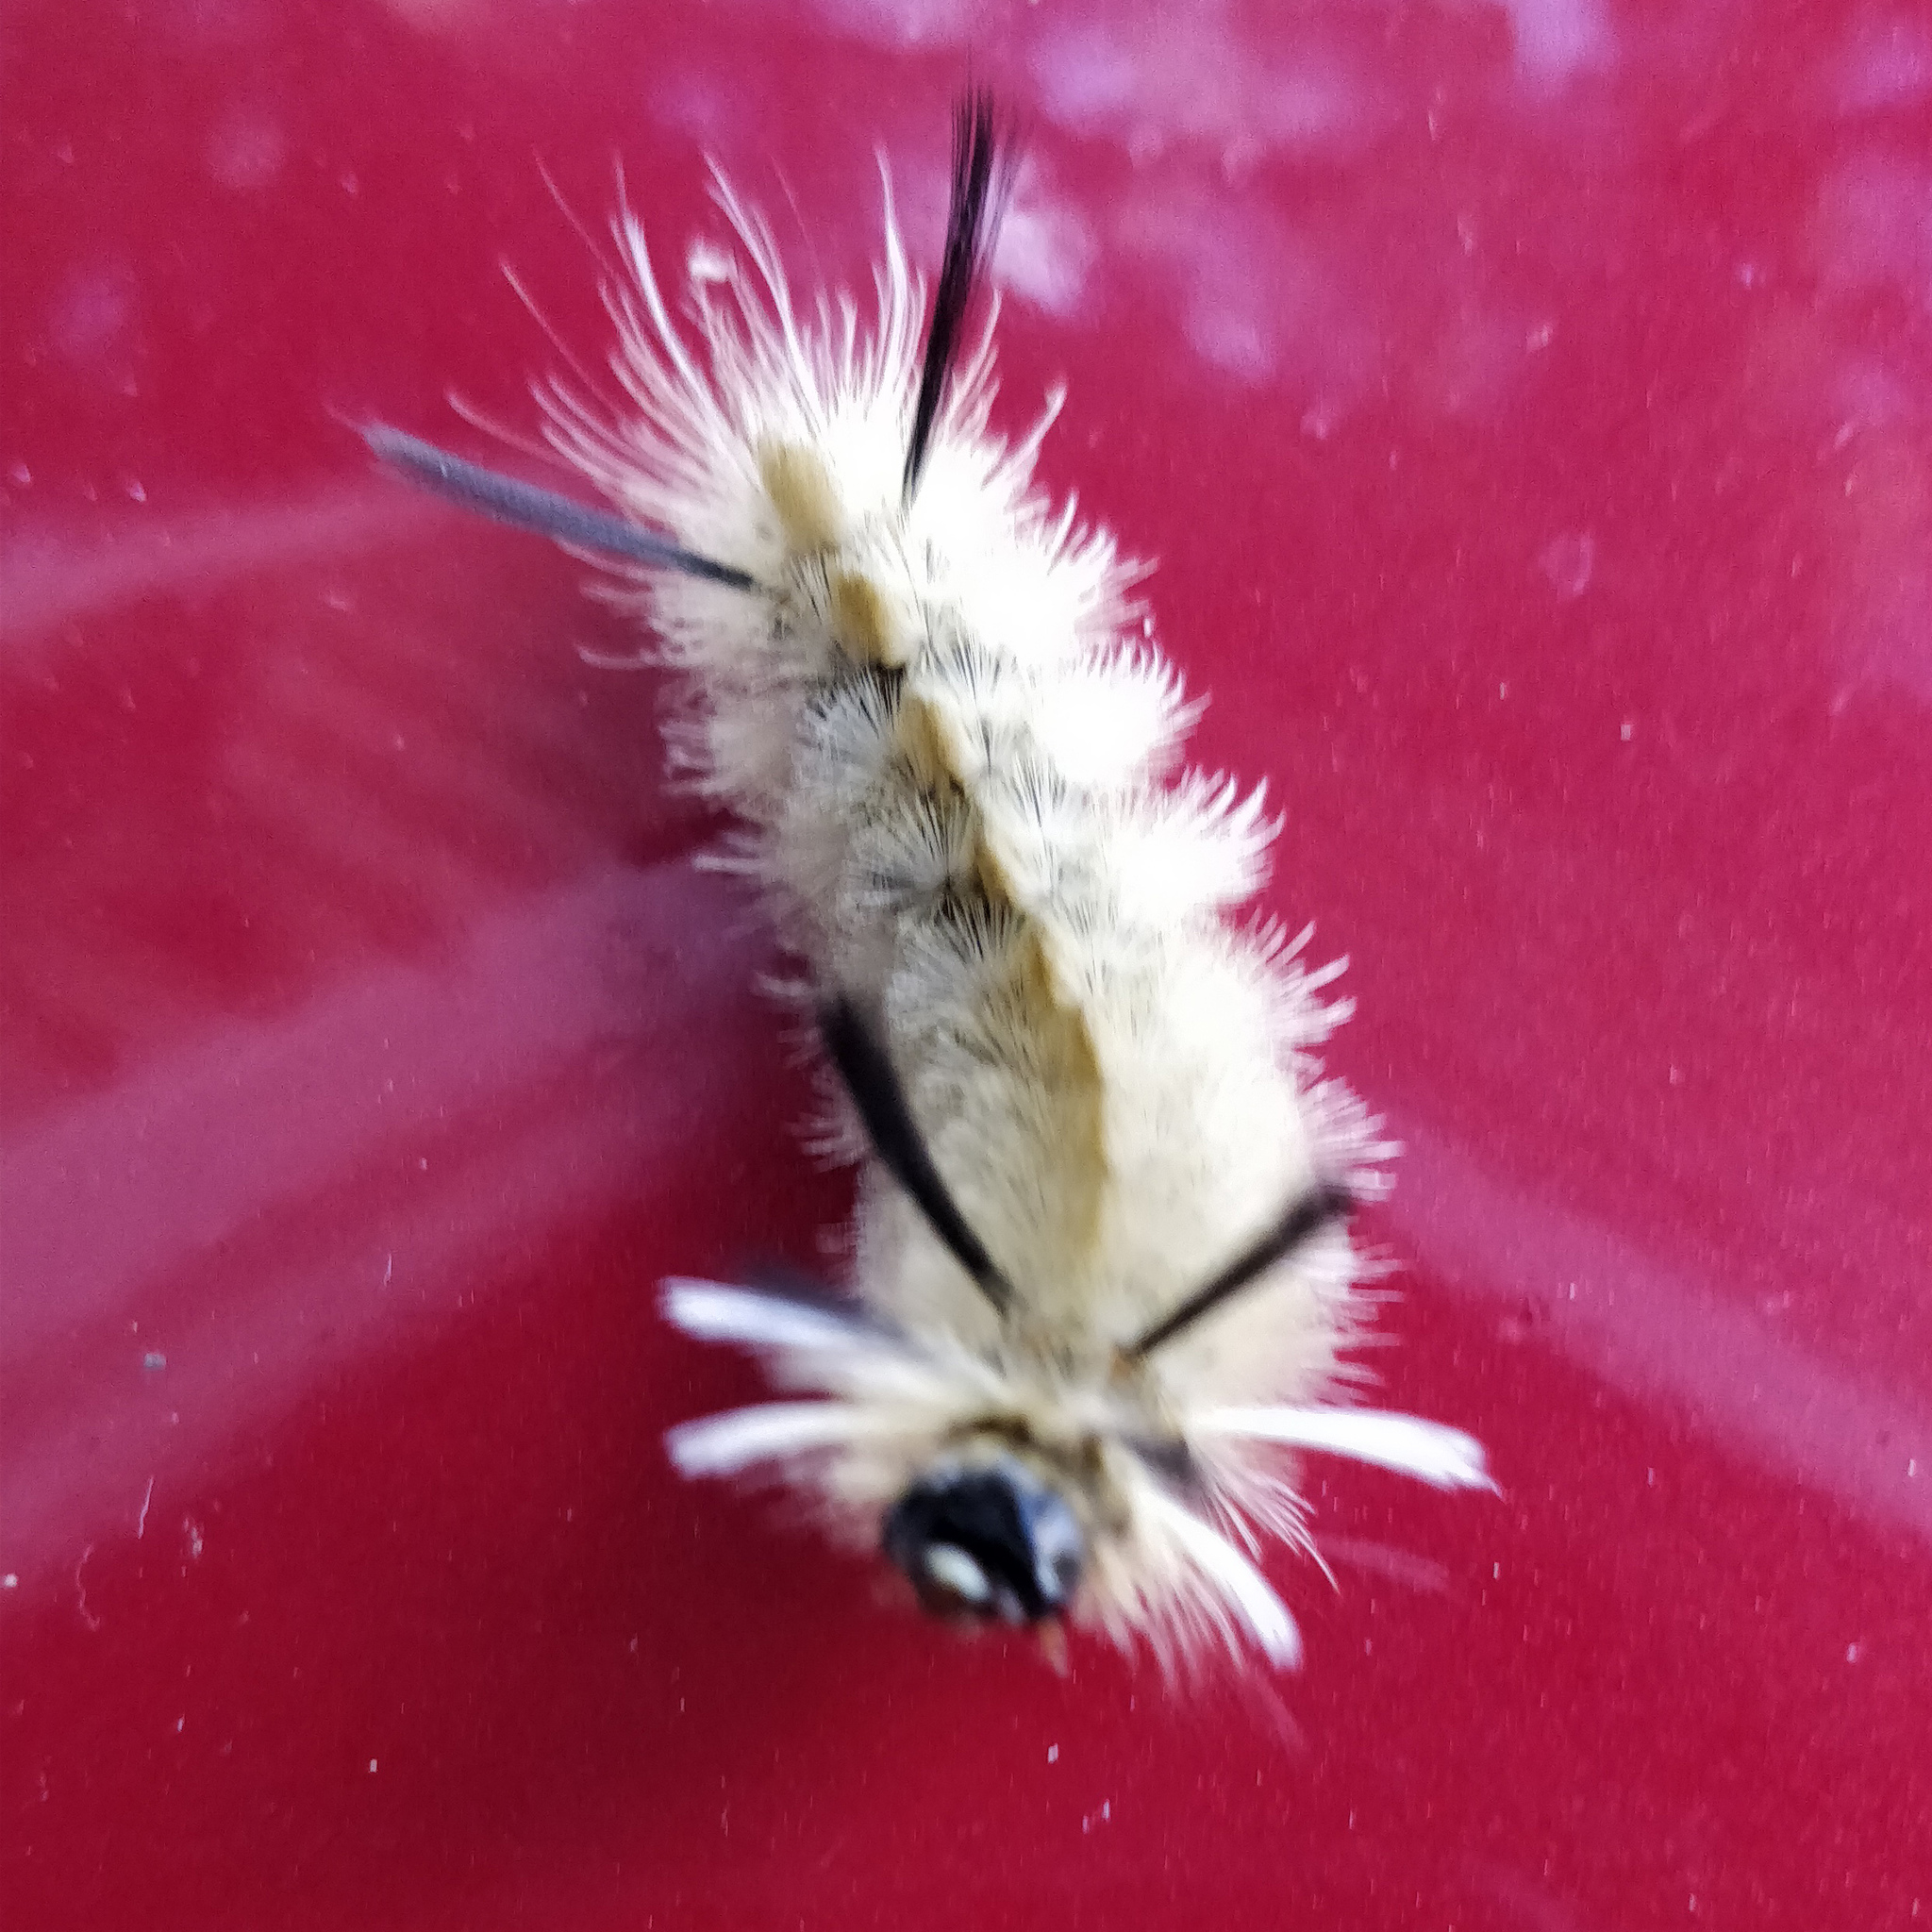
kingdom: Animalia
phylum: Arthropoda
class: Insecta
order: Lepidoptera
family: Erebidae
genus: Halysidota
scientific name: Halysidota tessellaris
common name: Banded tussock moth
